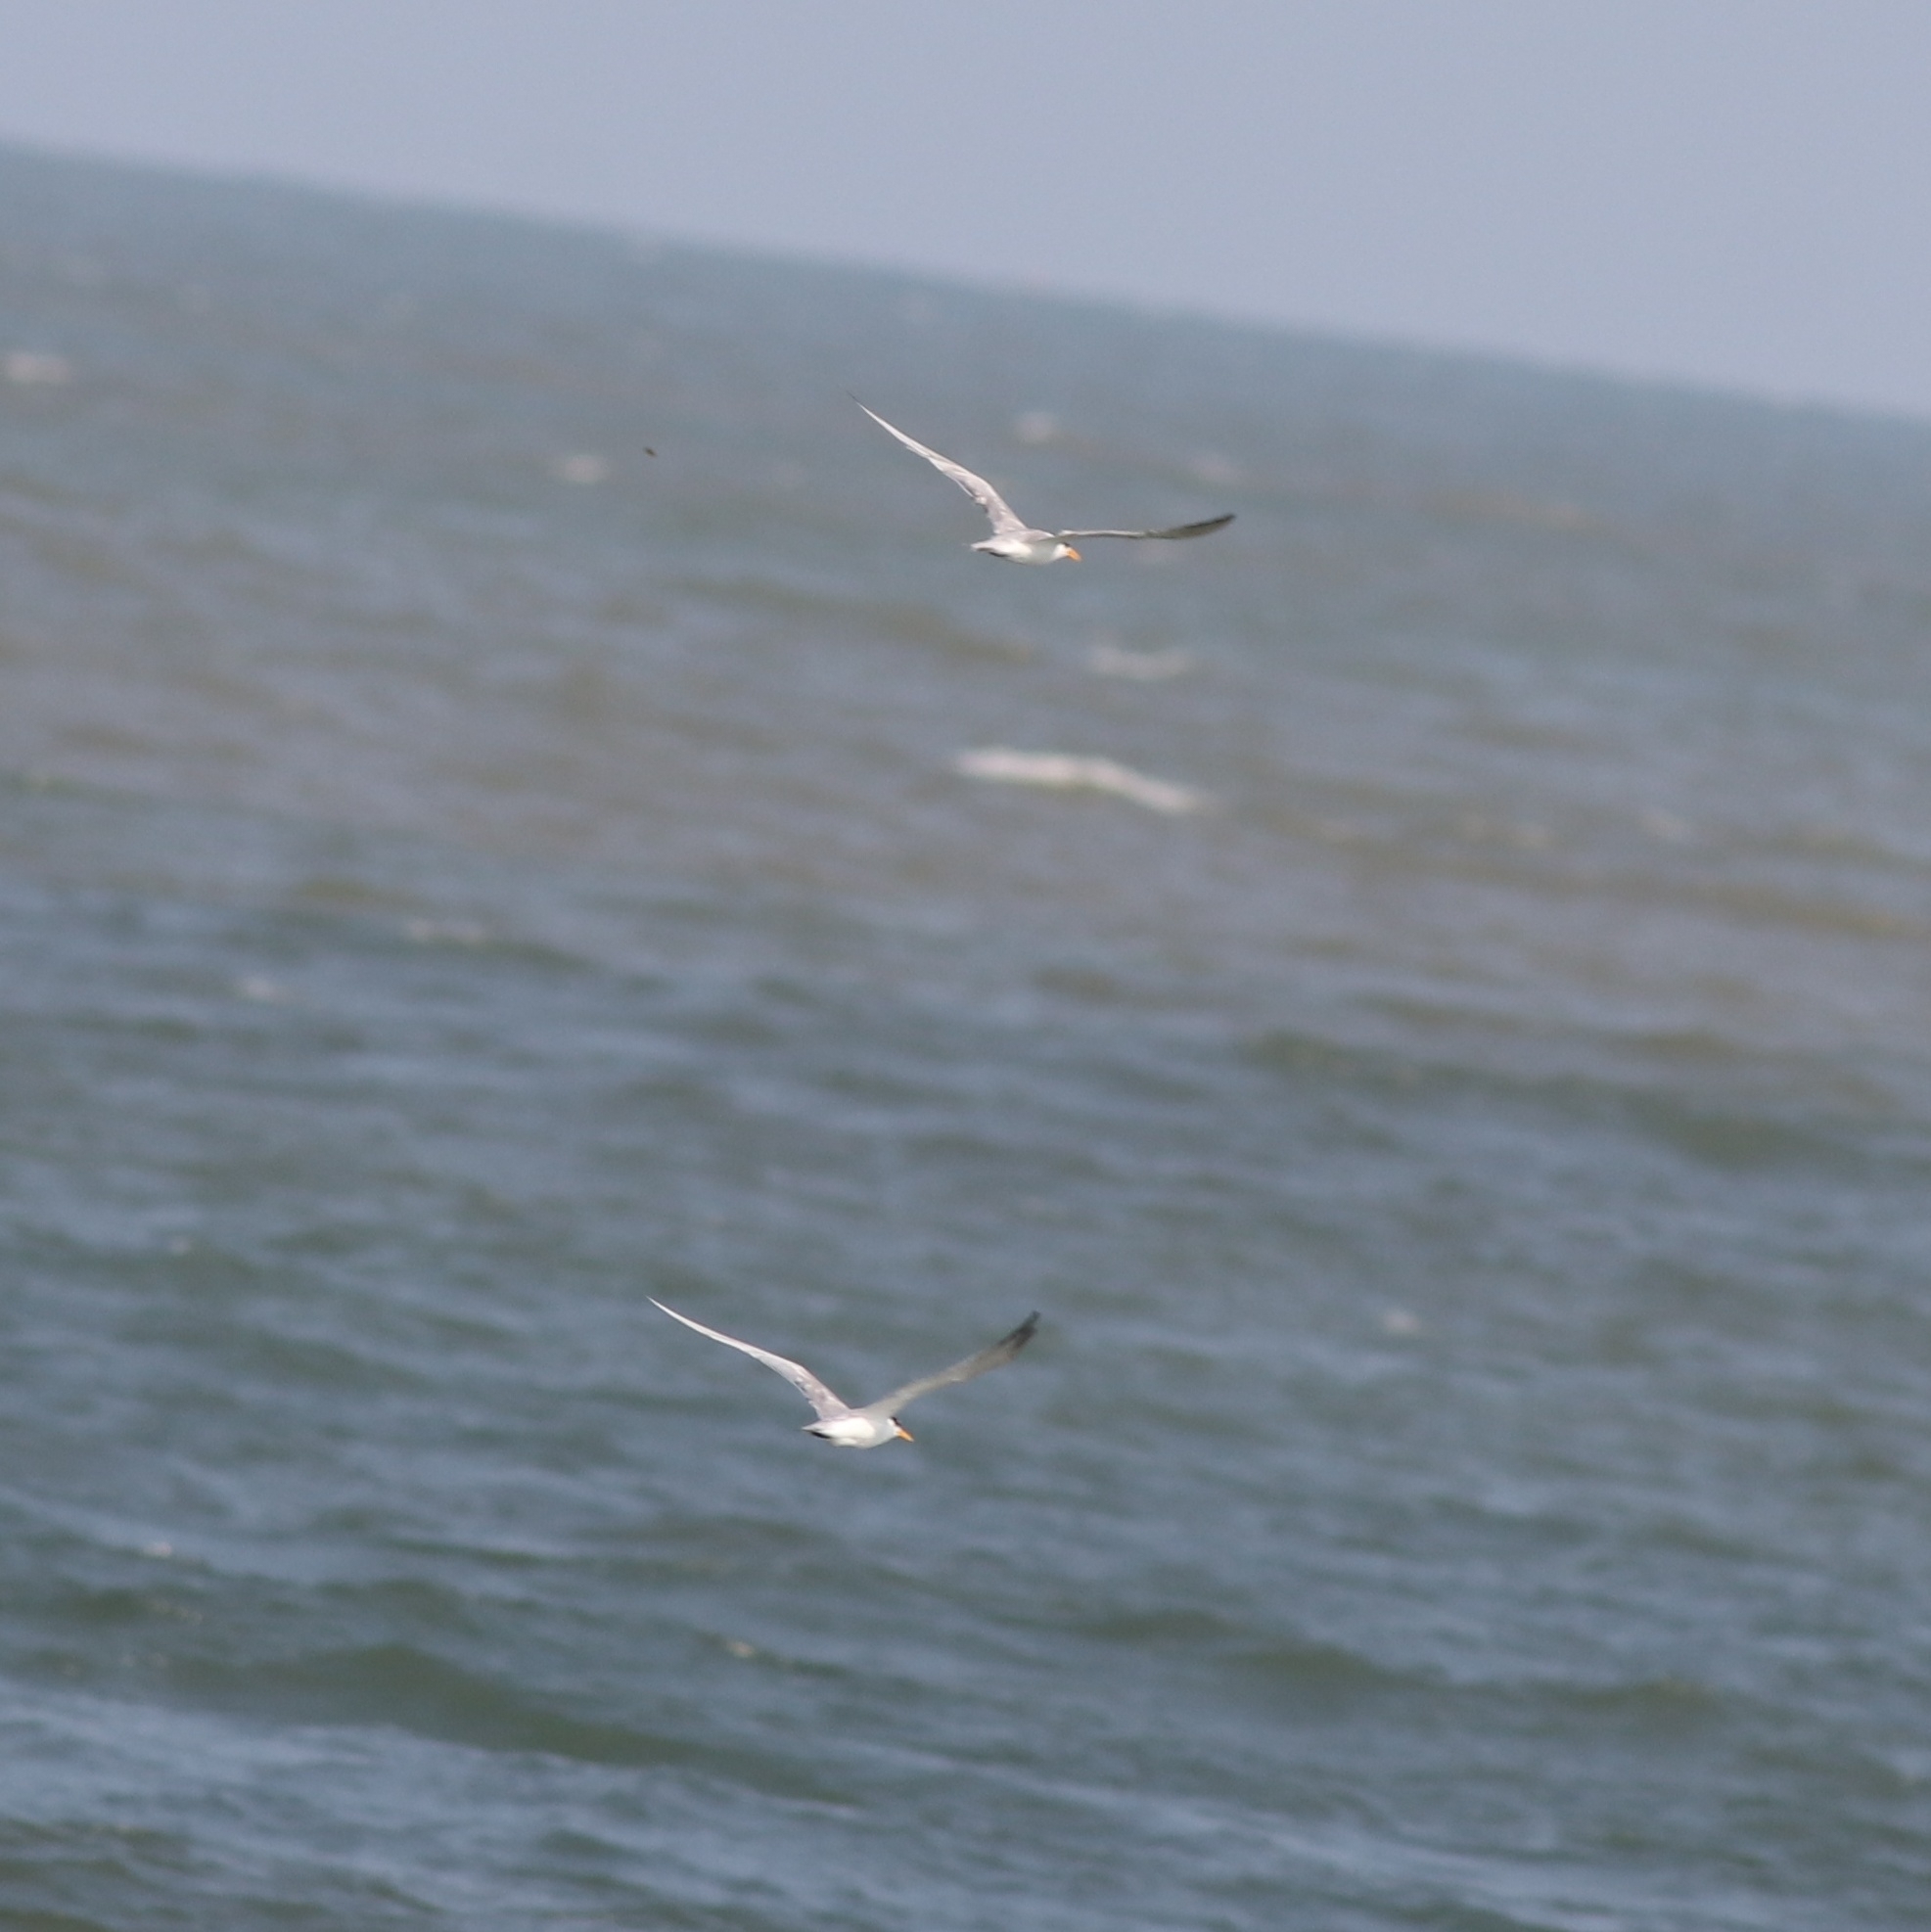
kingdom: Animalia
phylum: Chordata
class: Aves
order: Charadriiformes
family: Laridae
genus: Thalasseus
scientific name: Thalasseus bengalensis
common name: Lesser crested tern
